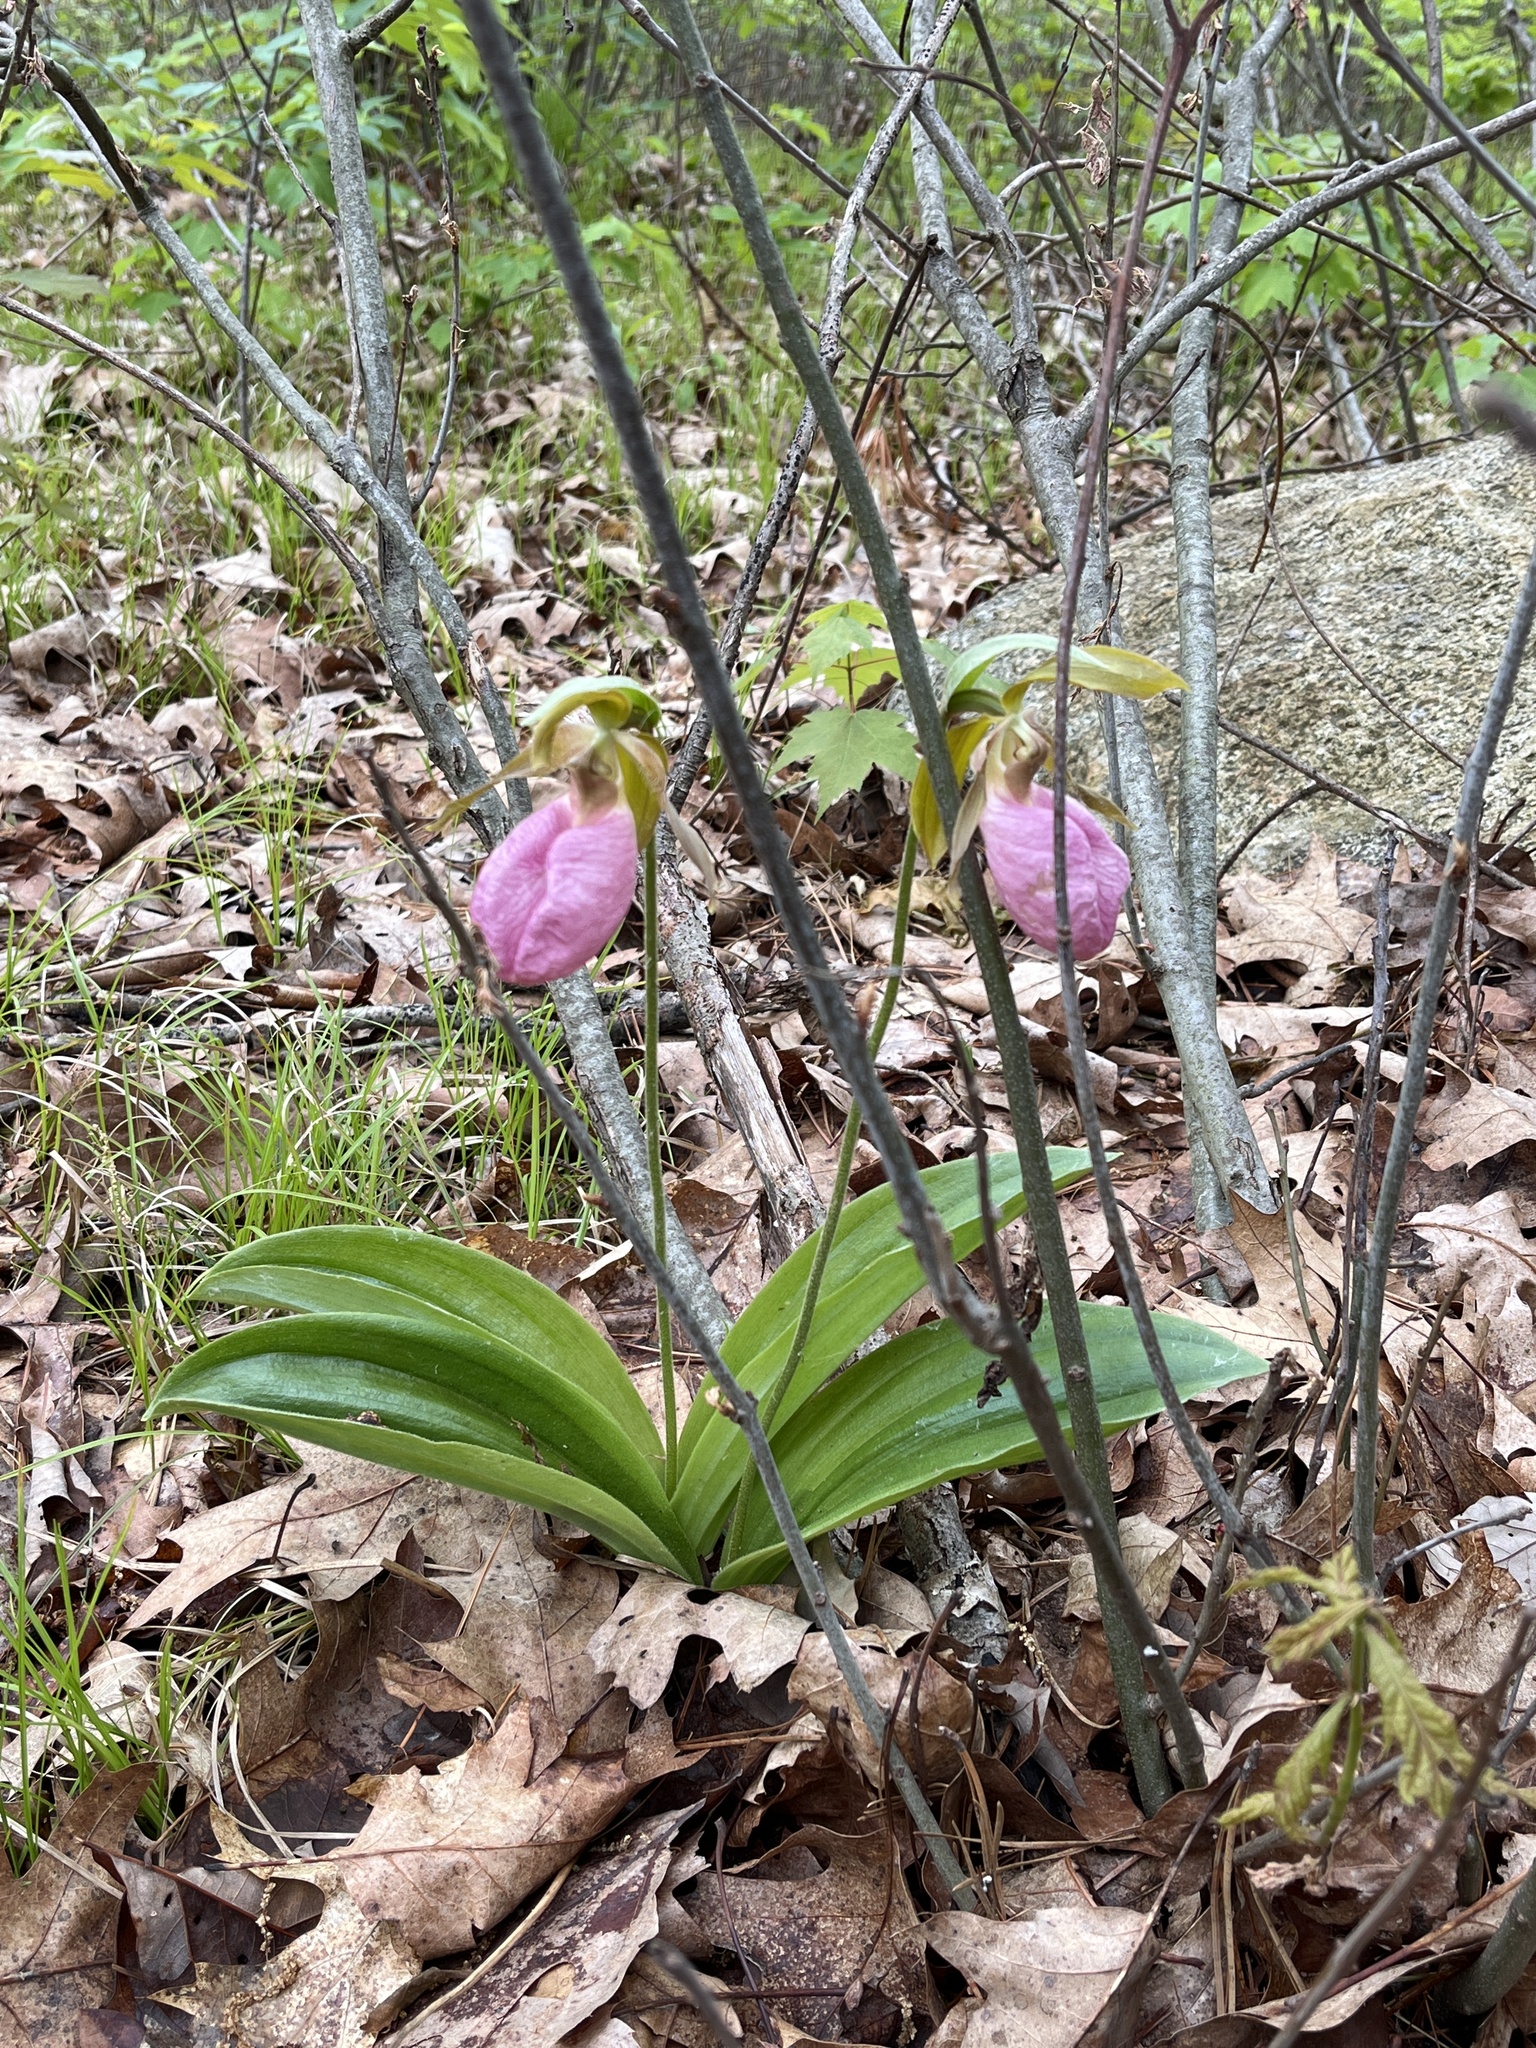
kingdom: Plantae
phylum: Tracheophyta
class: Liliopsida
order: Asparagales
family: Orchidaceae
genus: Cypripedium
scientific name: Cypripedium acaule
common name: Pink lady's-slipper
